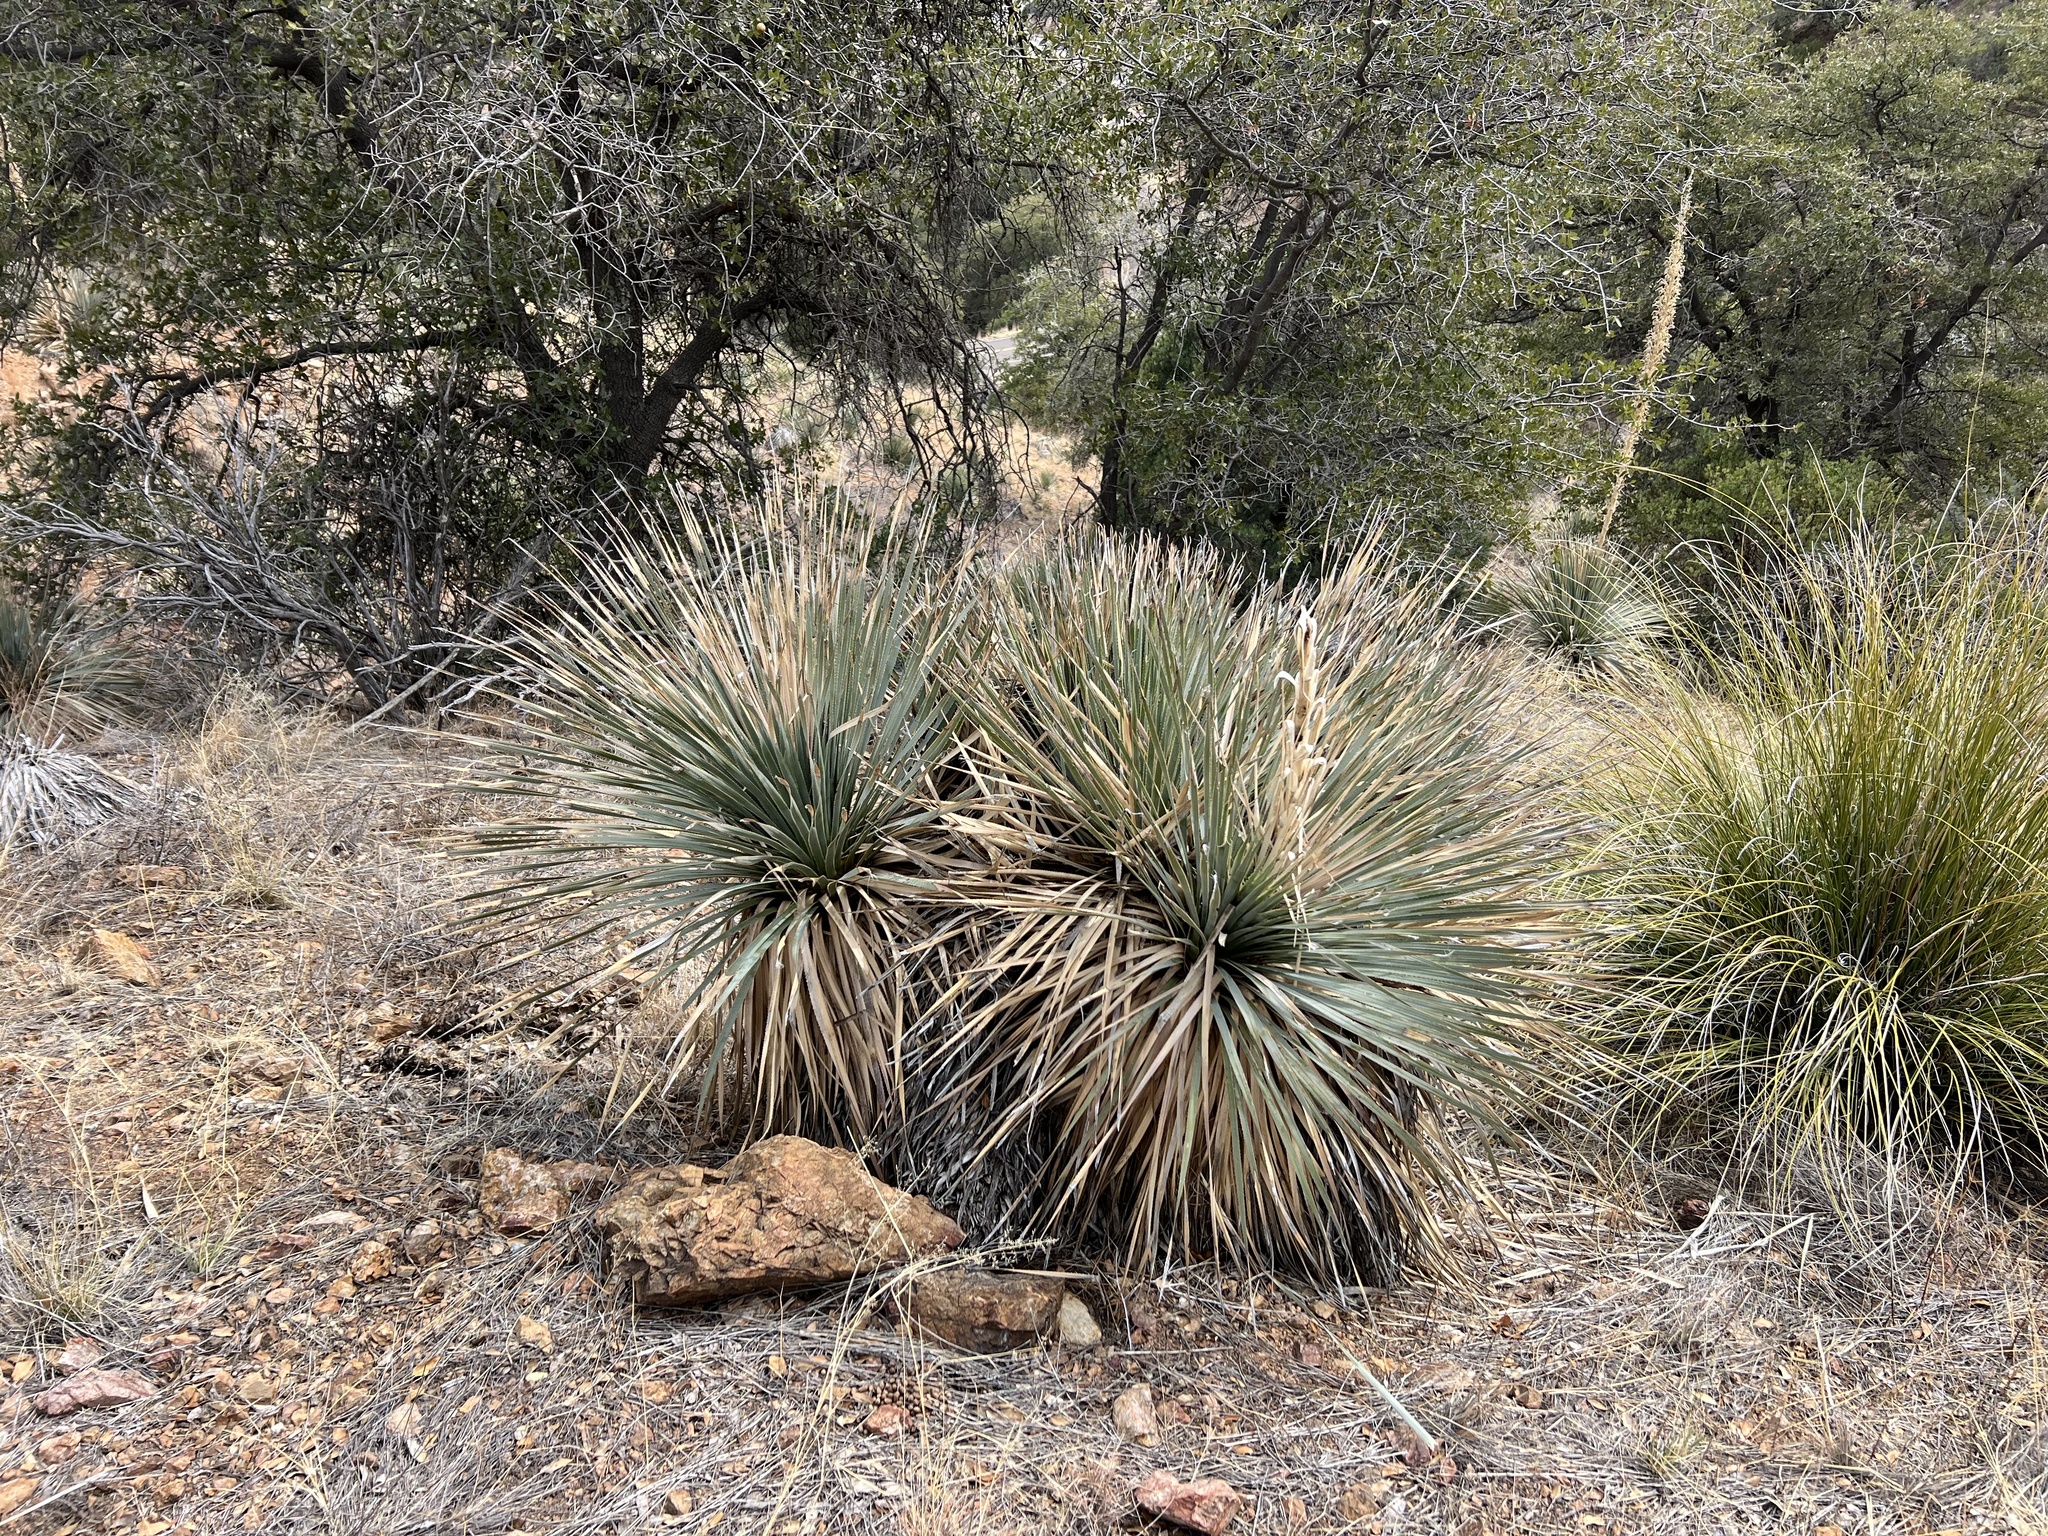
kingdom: Plantae
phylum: Tracheophyta
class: Liliopsida
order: Asparagales
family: Asparagaceae
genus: Dasylirion
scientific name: Dasylirion wheeleri
